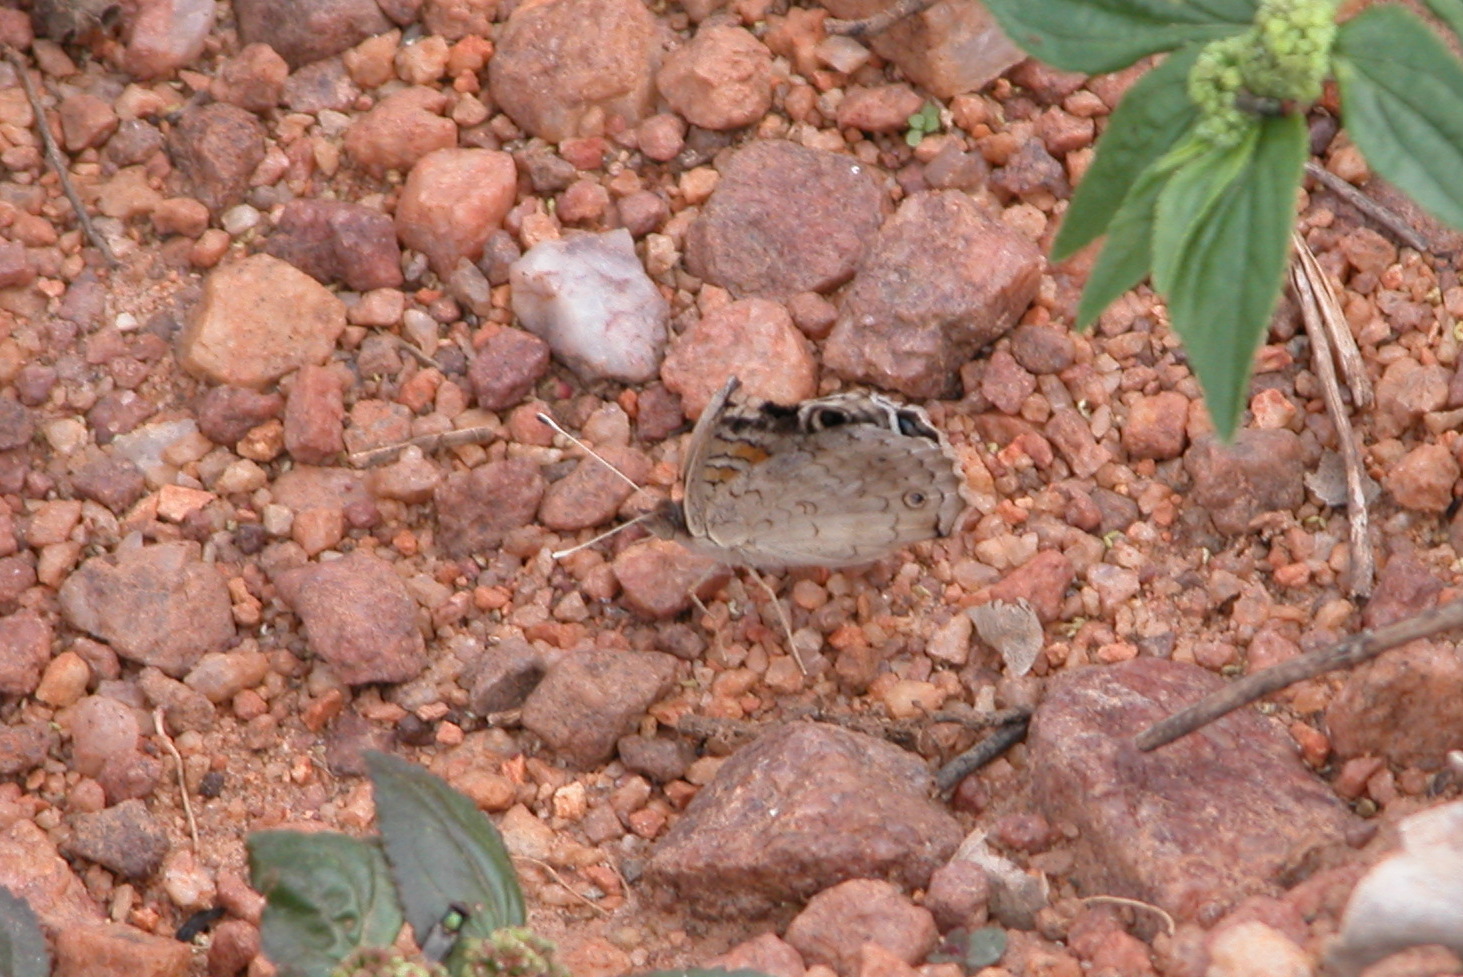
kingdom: Animalia
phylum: Arthropoda
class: Insecta
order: Lepidoptera
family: Nymphalidae
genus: Junonia
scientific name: Junonia orithya
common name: Blue pansy
